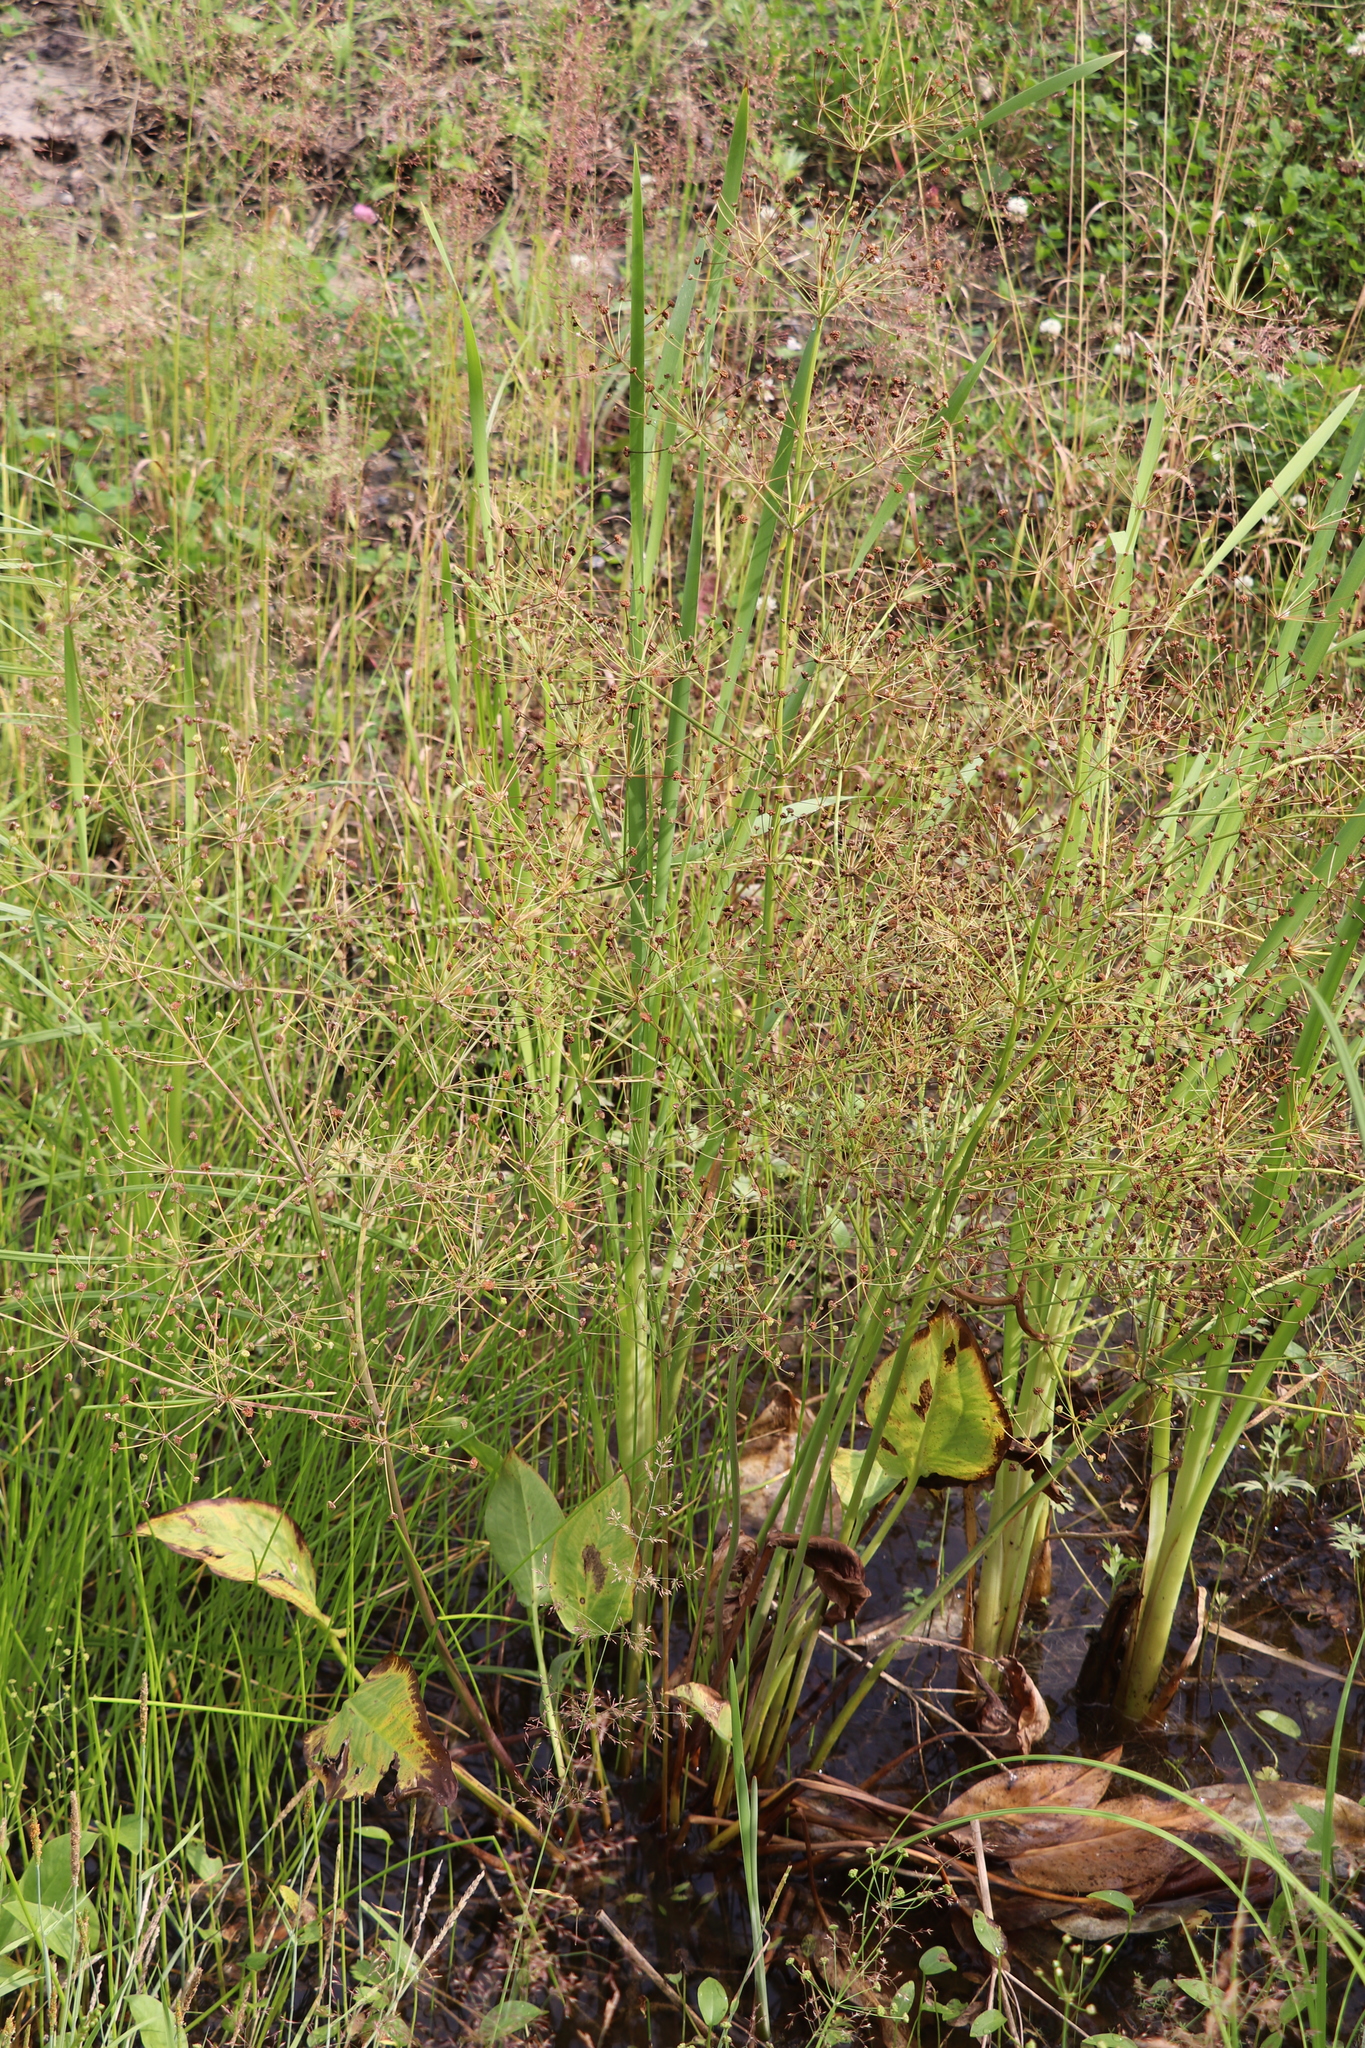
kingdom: Plantae
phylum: Tracheophyta
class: Liliopsida
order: Alismatales
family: Alismataceae
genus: Alisma
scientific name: Alisma plantago-aquatica
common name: Water-plantain
